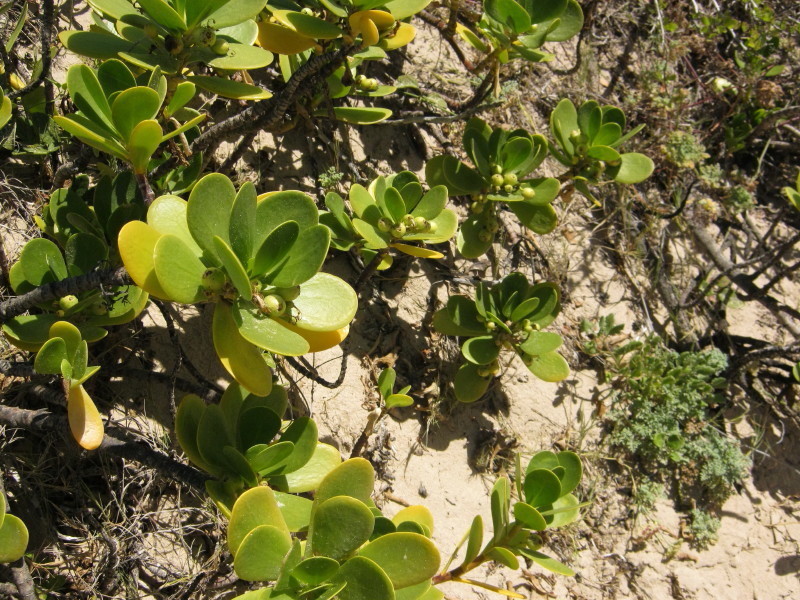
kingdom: Plantae
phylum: Tracheophyta
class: Magnoliopsida
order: Asterales
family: Goodeniaceae
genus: Scaevola
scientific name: Scaevola plumieri
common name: Gull feed
